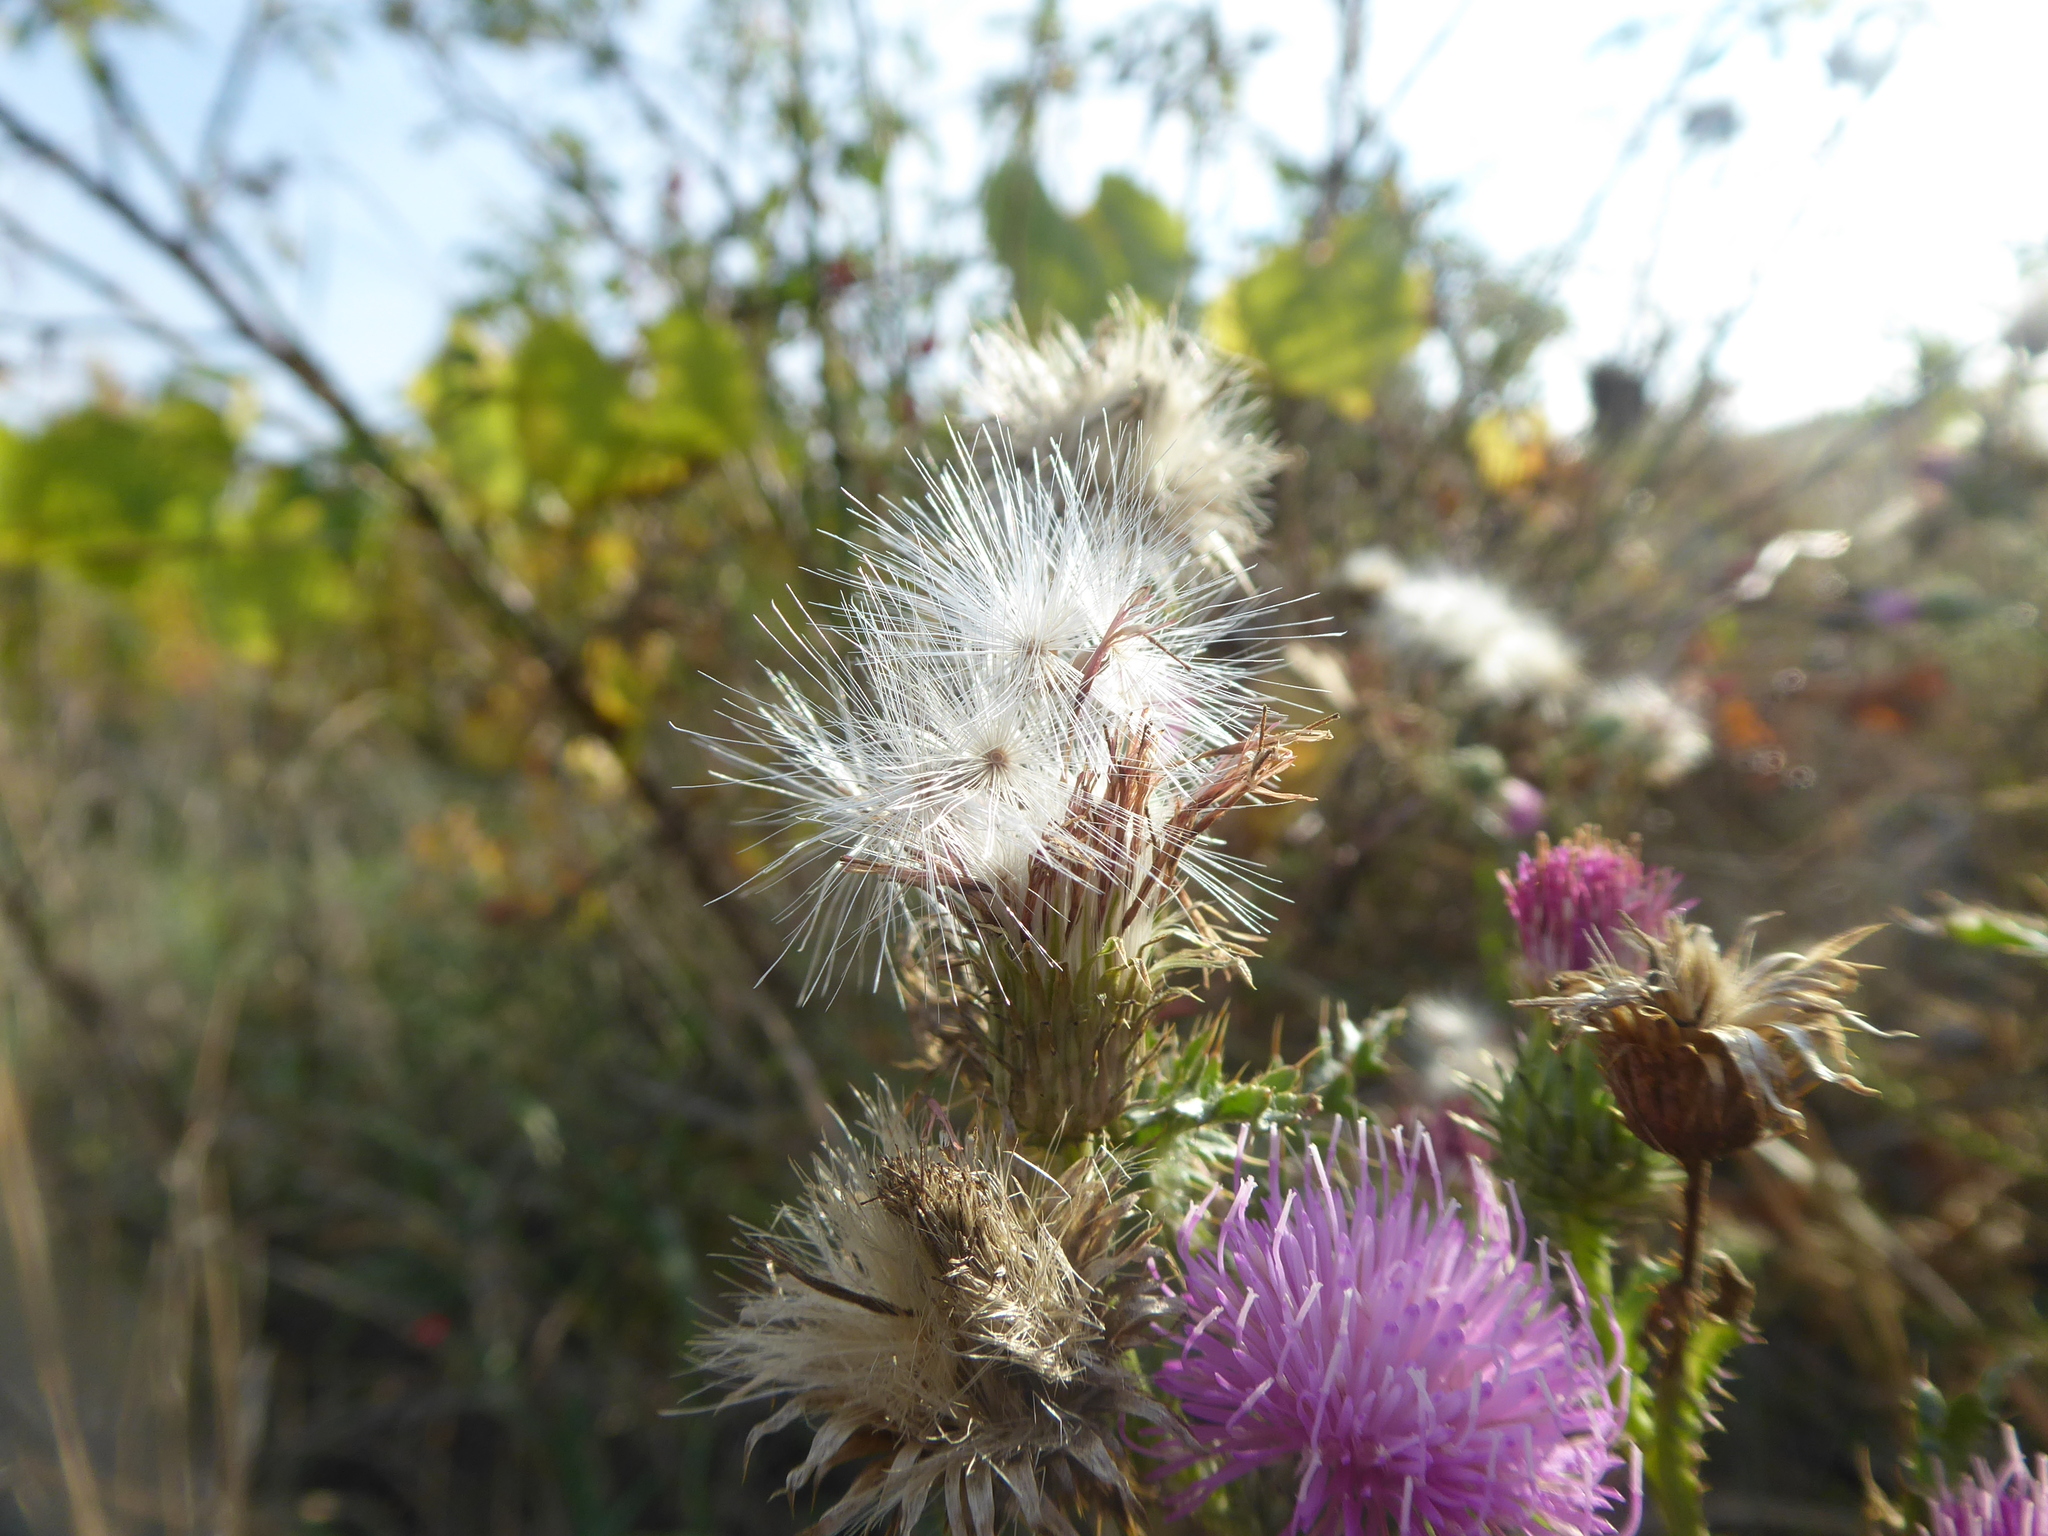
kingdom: Plantae
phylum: Tracheophyta
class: Magnoliopsida
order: Asterales
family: Asteraceae
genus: Carduus
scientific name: Carduus acanthoides
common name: Plumeless thistle
